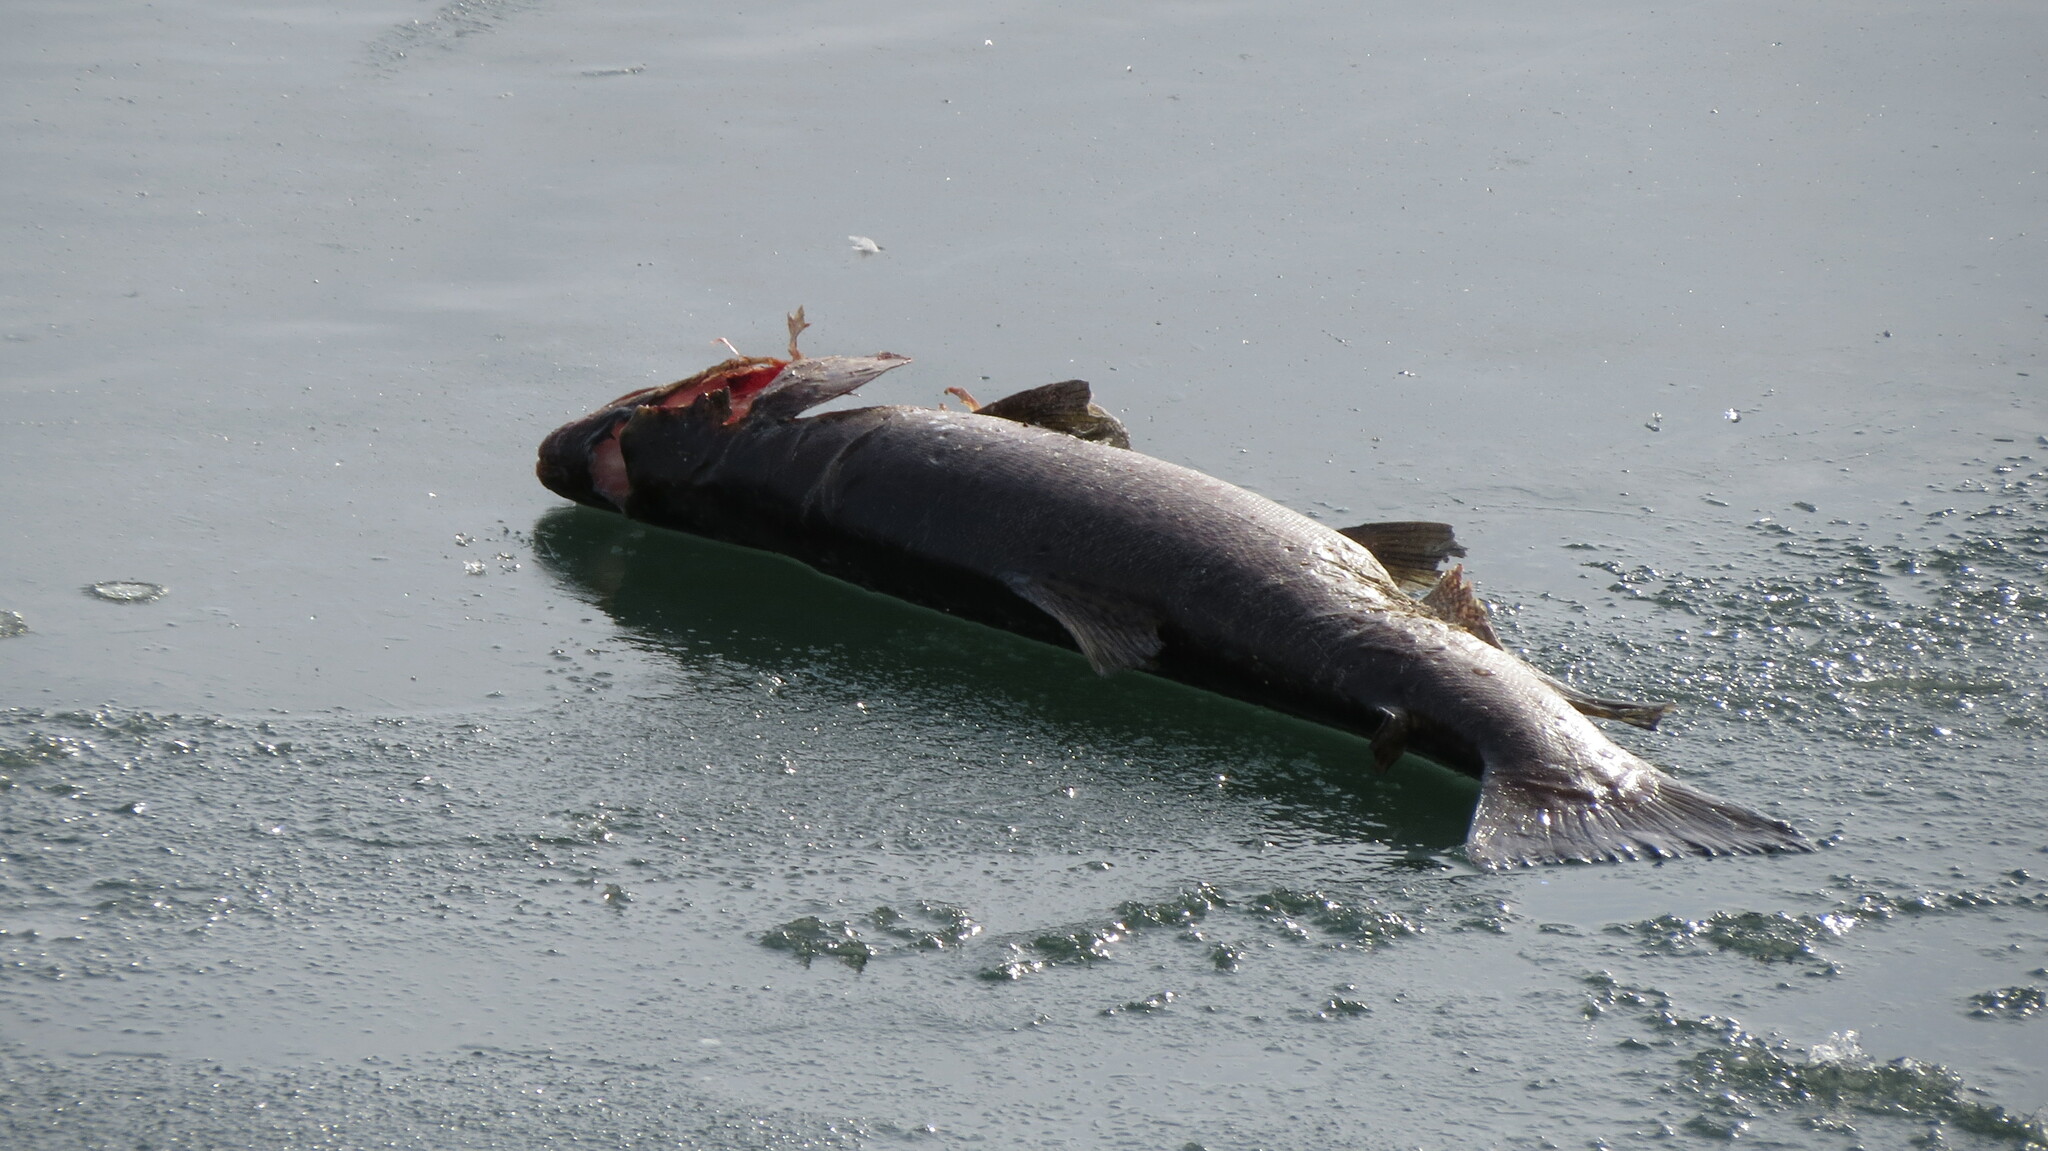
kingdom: Animalia
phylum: Chordata
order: Salmoniformes
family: Salmonidae
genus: Salmo
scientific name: Salmo trutta
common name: Brown trout
